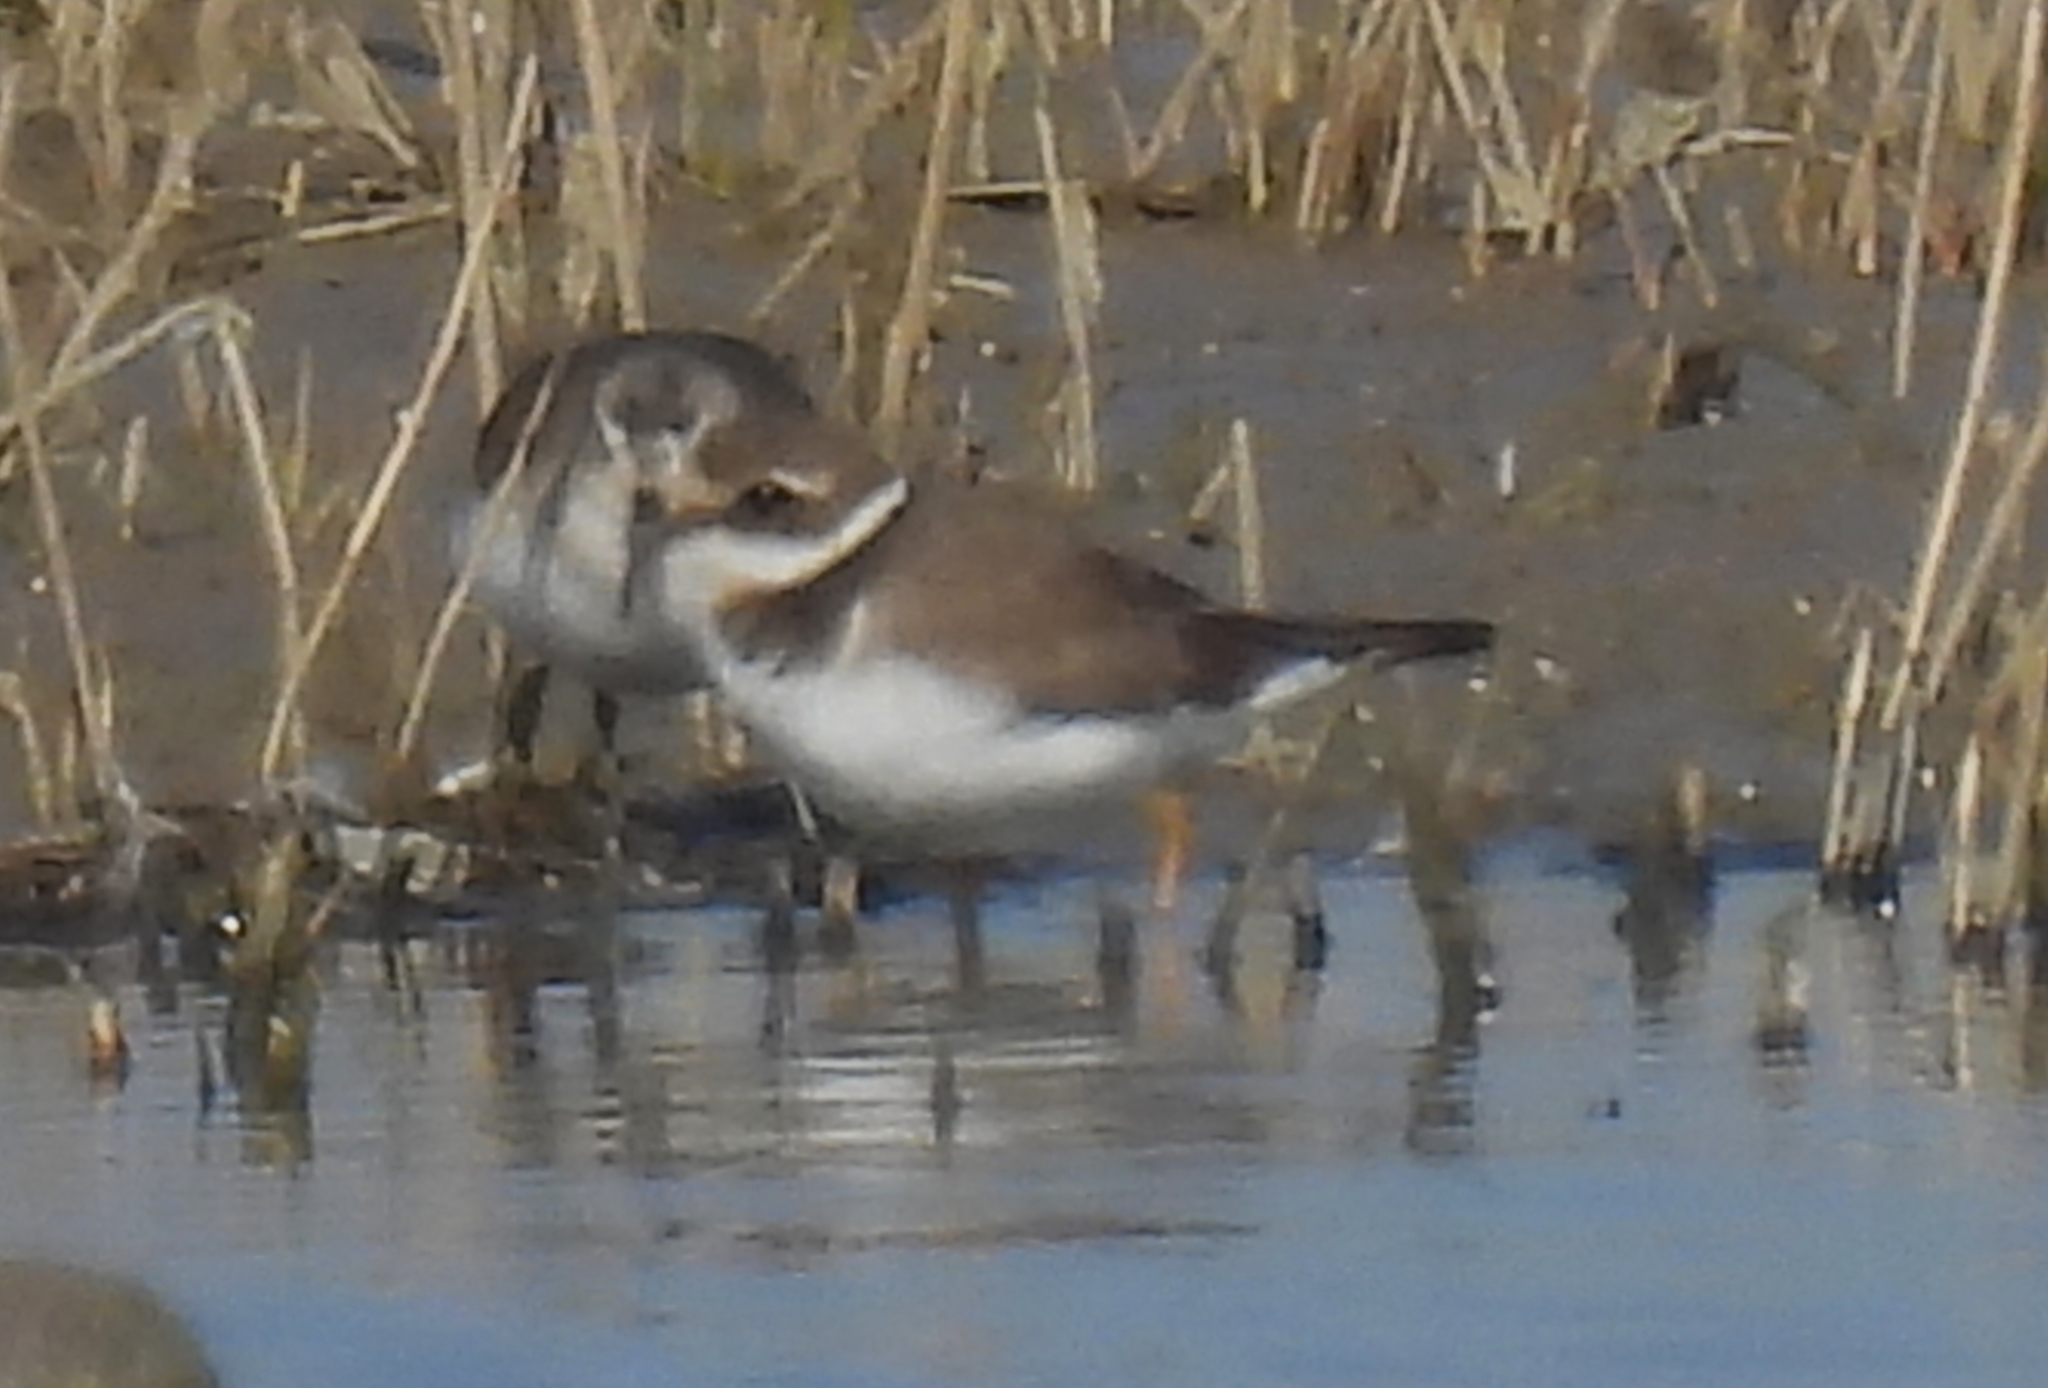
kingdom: Animalia
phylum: Chordata
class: Aves
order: Charadriiformes
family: Charadriidae
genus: Charadrius
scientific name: Charadrius hiaticula
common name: Common ringed plover
